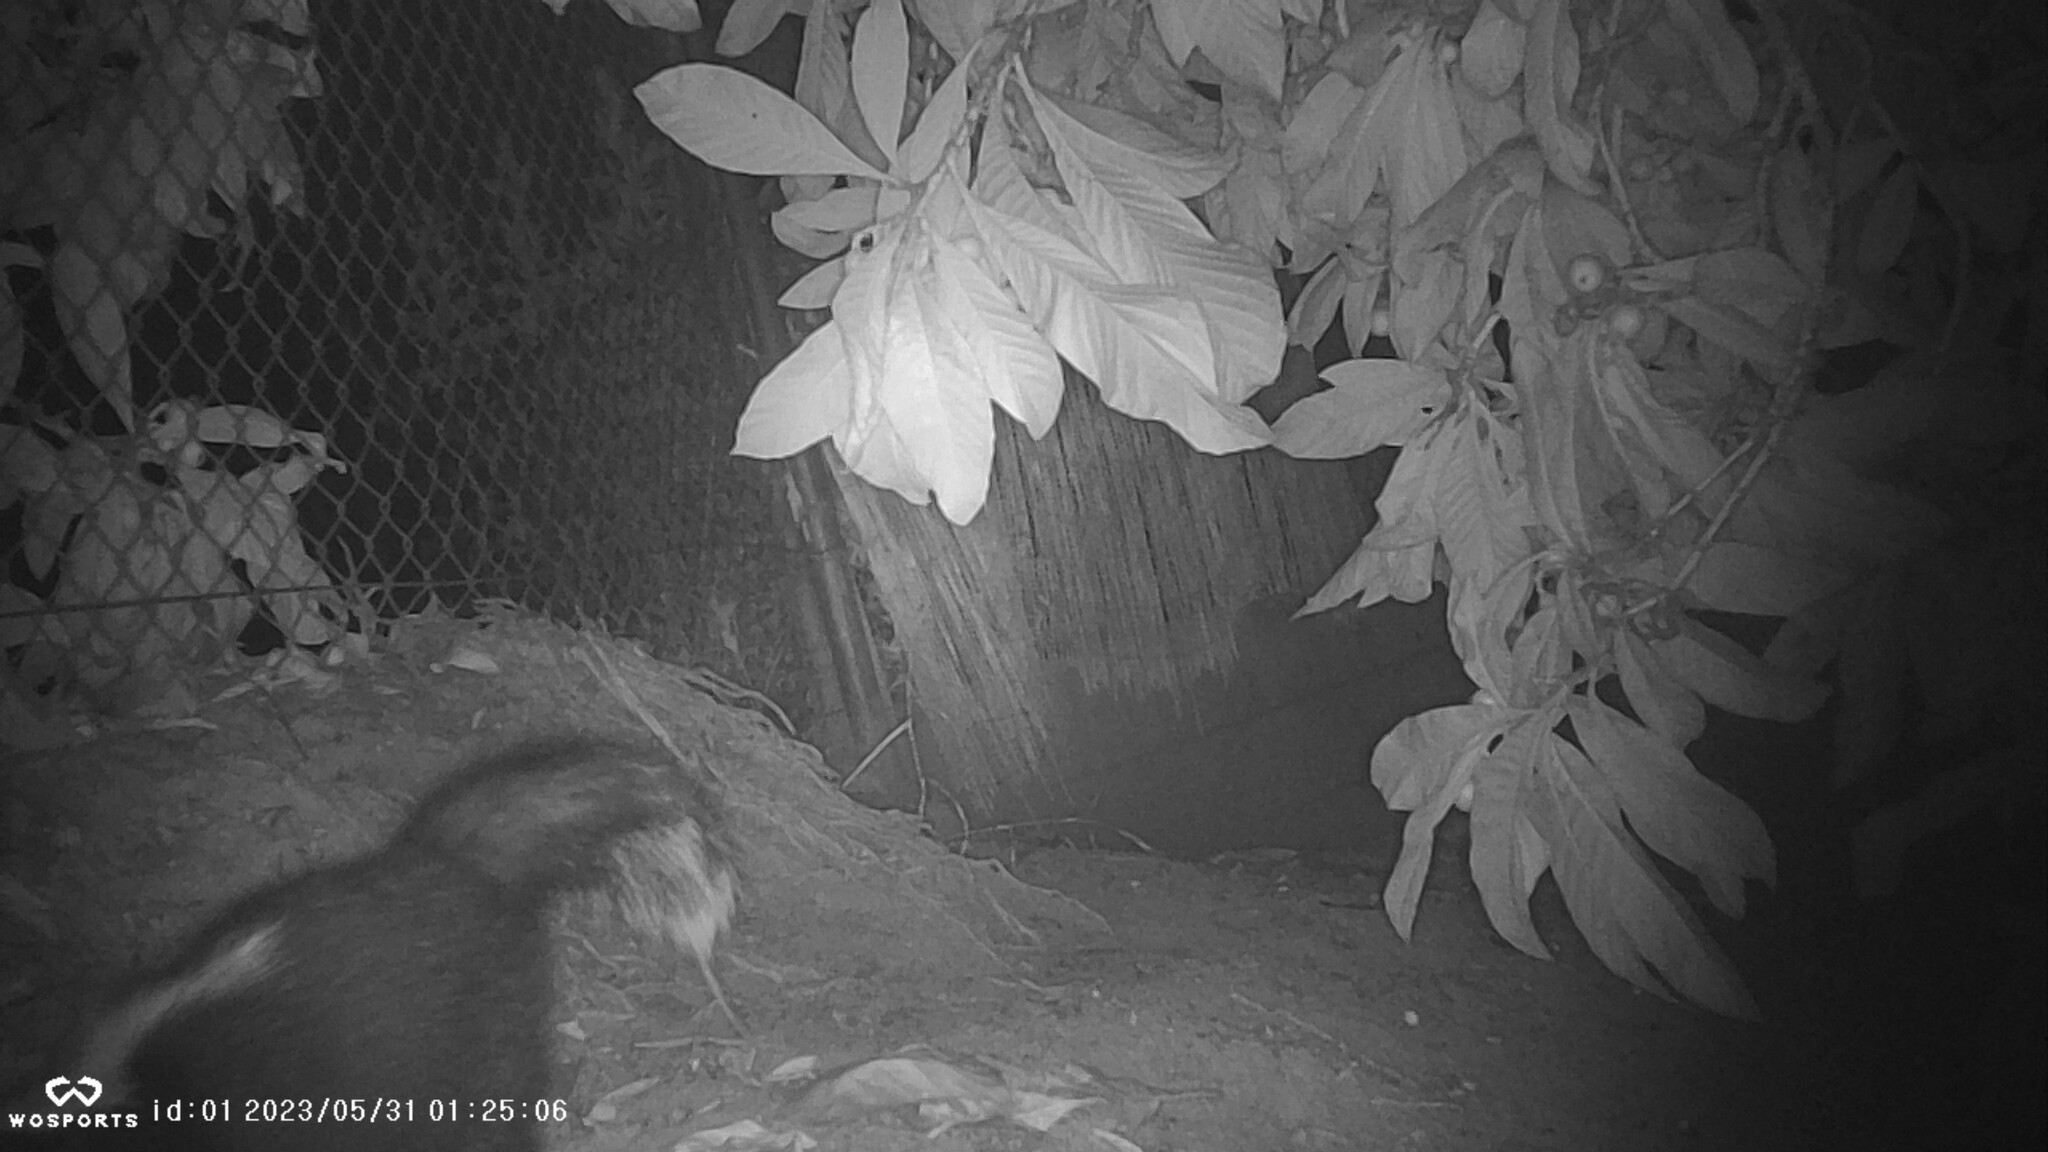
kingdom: Animalia
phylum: Chordata
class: Mammalia
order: Carnivora
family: Mephitidae
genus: Mephitis
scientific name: Mephitis mephitis
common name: Striped skunk
